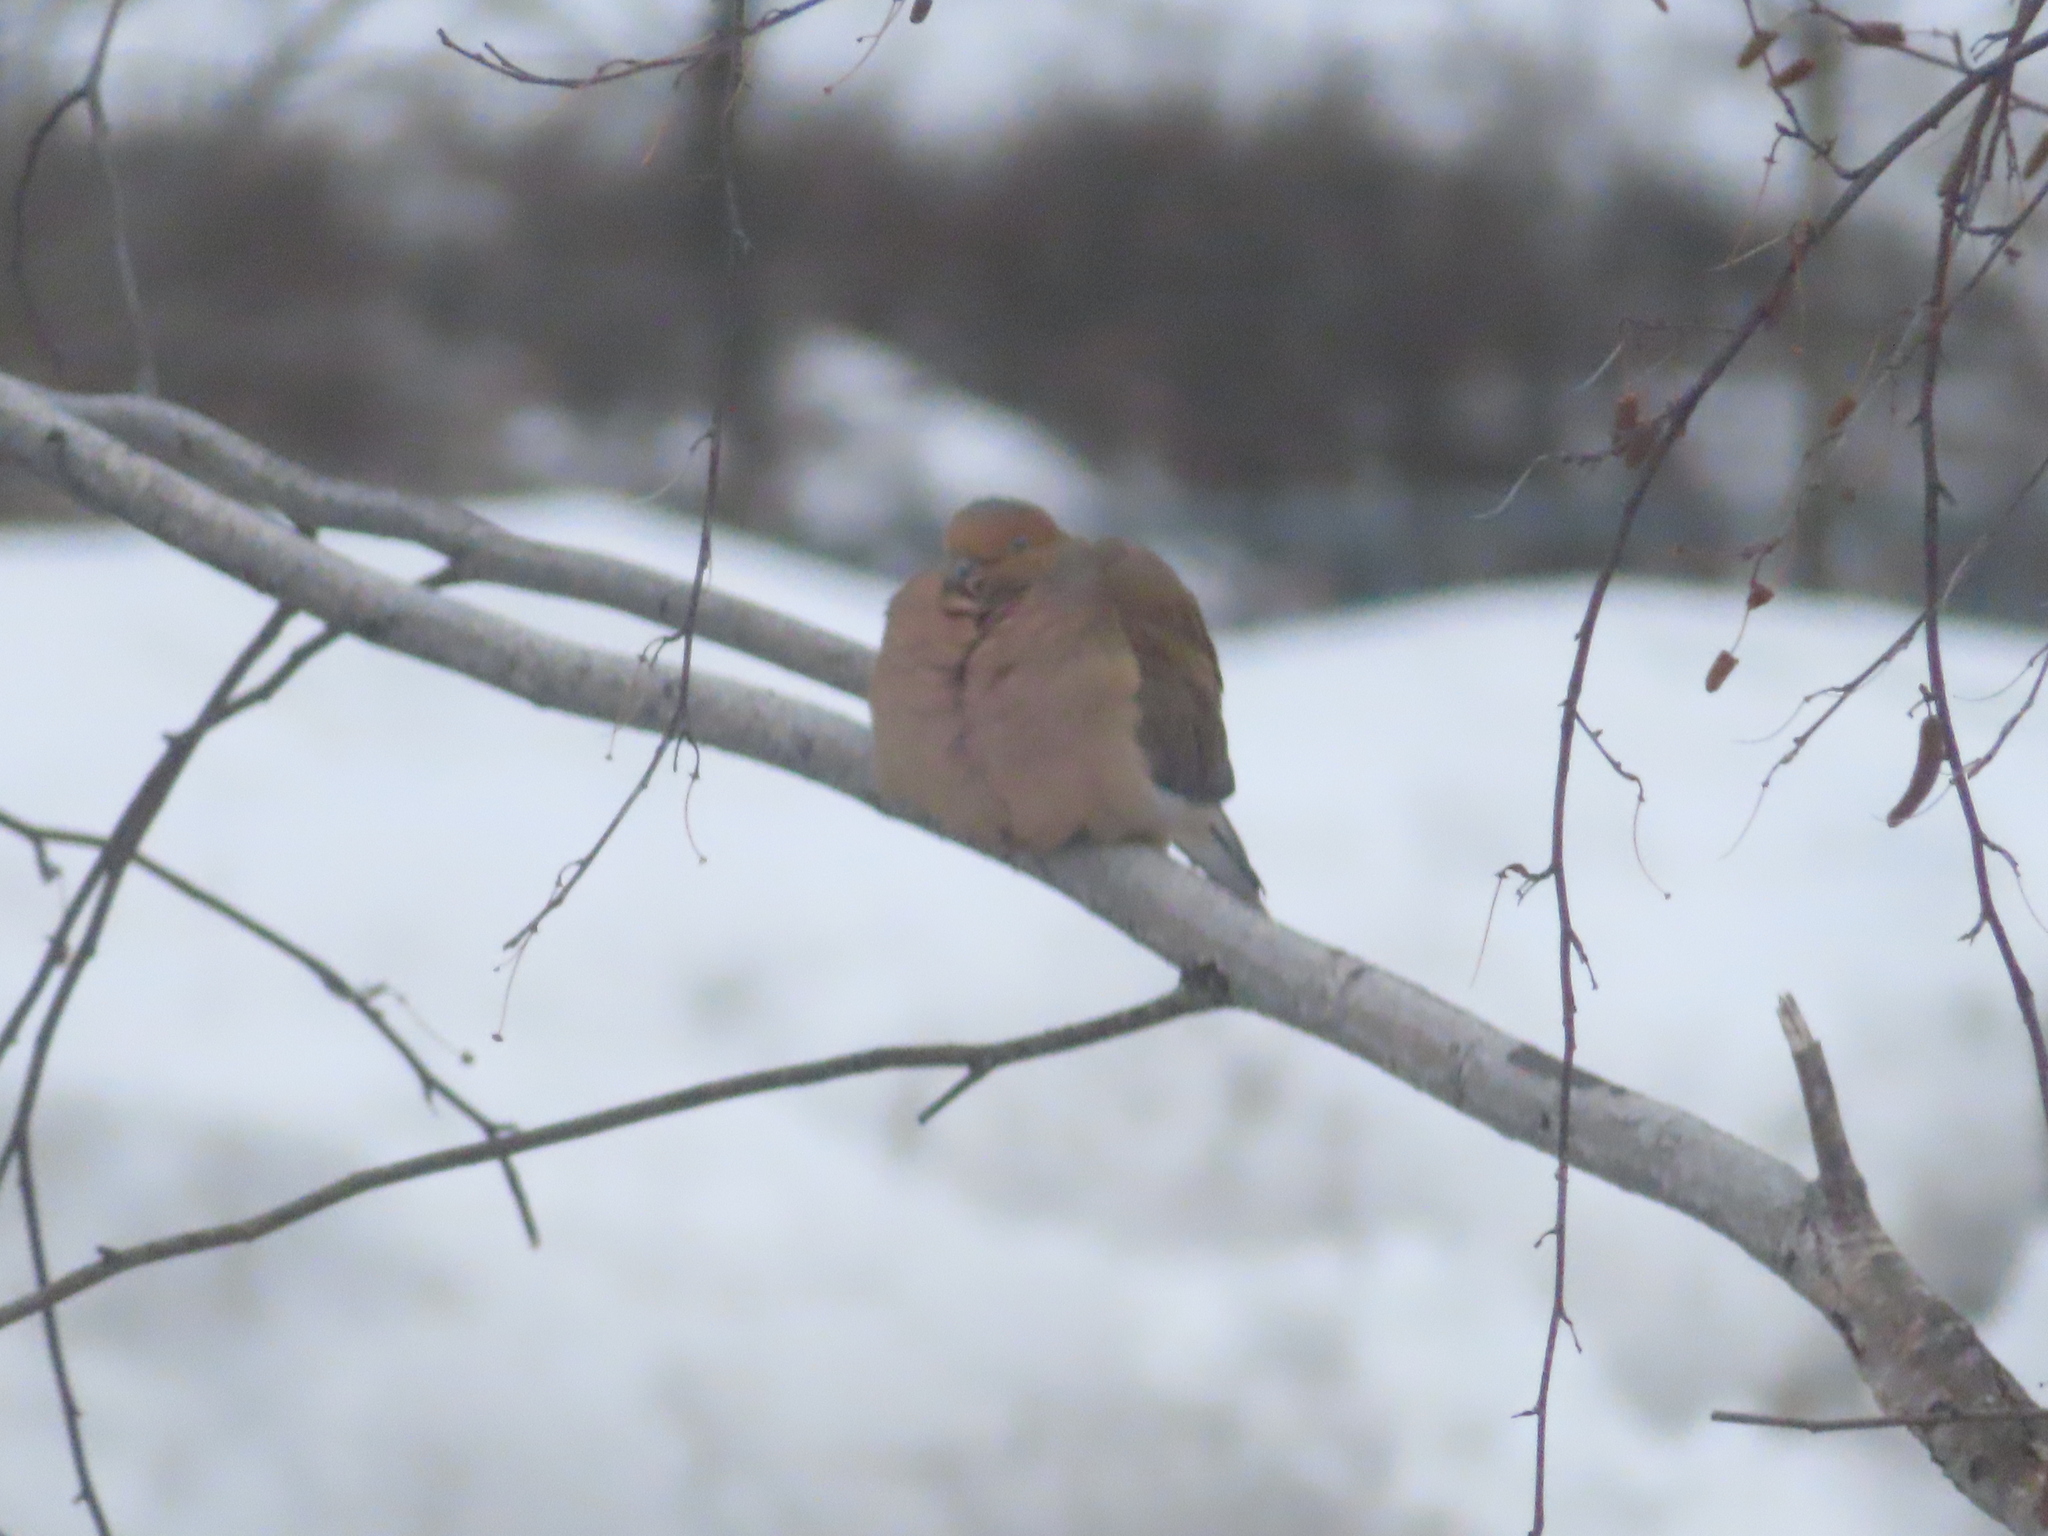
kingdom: Animalia
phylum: Chordata
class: Aves
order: Columbiformes
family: Columbidae
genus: Zenaida
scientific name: Zenaida macroura
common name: Mourning dove
